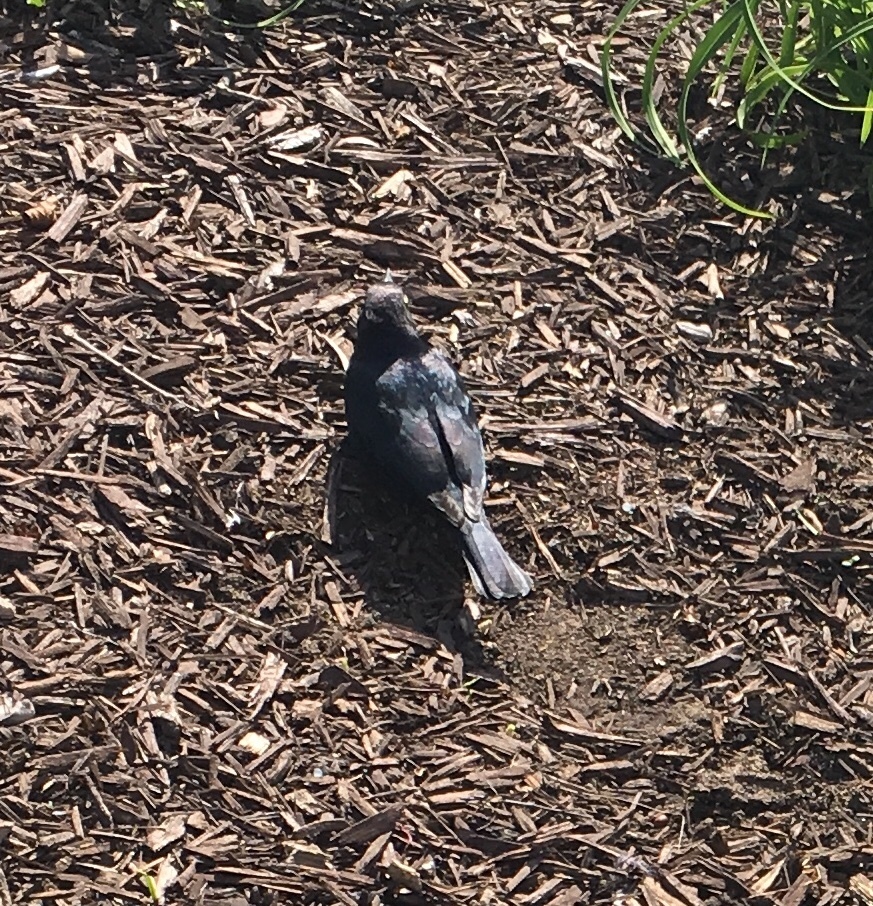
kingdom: Animalia
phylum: Chordata
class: Aves
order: Passeriformes
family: Icteridae
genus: Euphagus
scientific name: Euphagus cyanocephalus
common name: Brewer's blackbird
